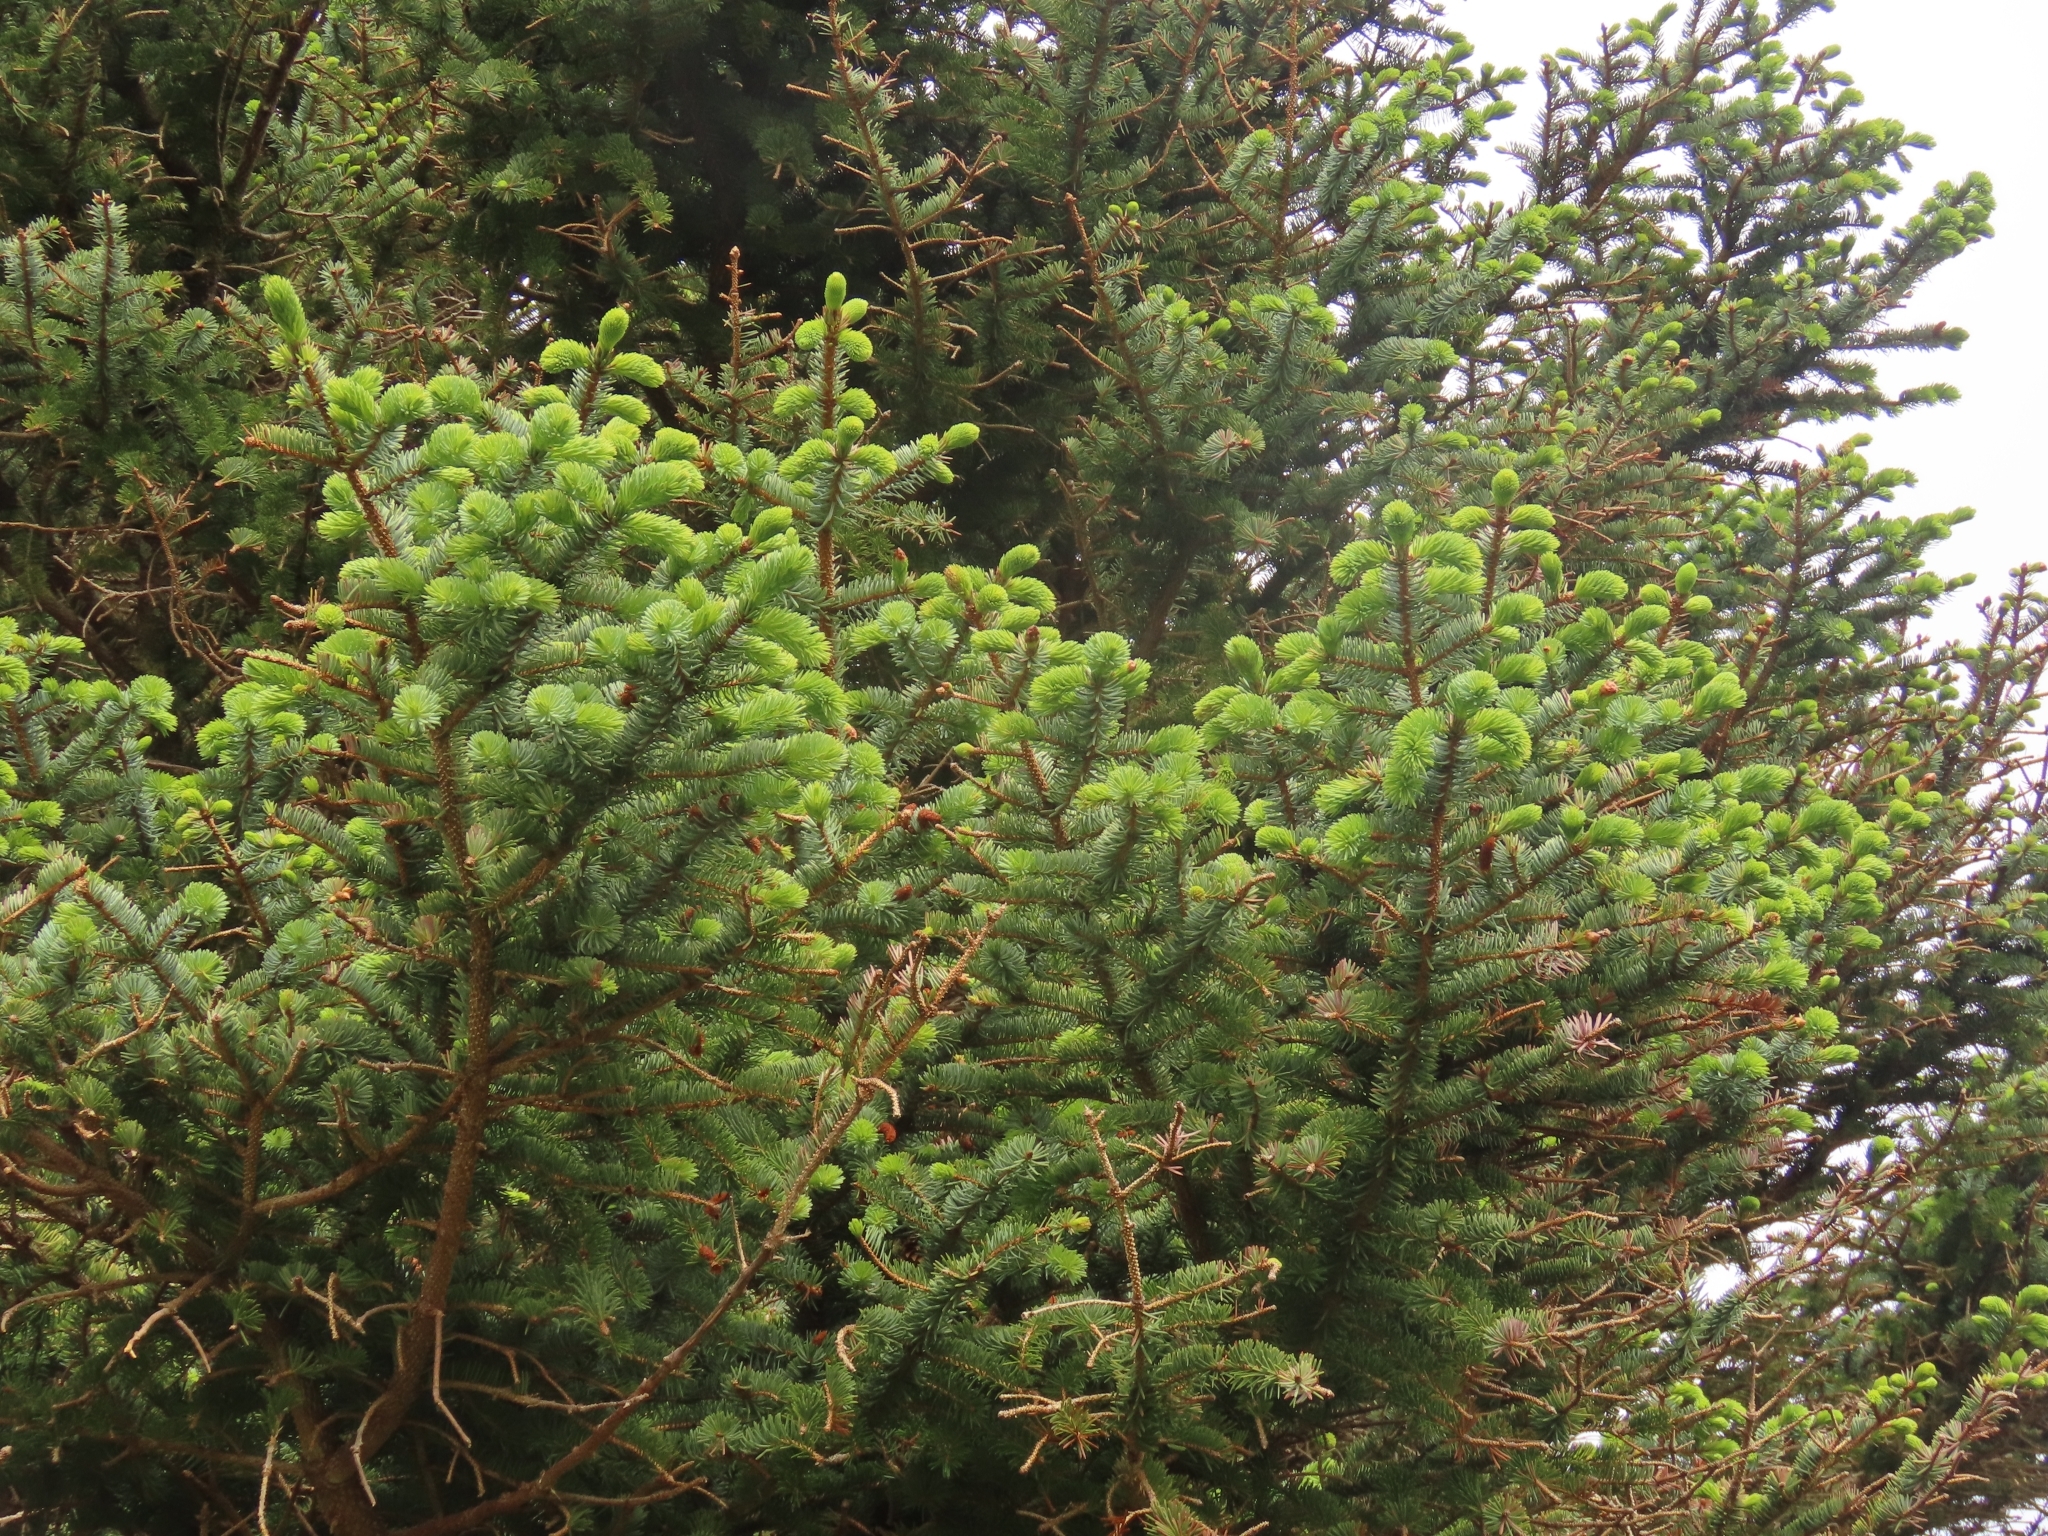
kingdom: Plantae
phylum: Tracheophyta
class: Pinopsida
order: Pinales
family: Pinaceae
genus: Picea
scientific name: Picea sitchensis
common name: Sitka spruce
